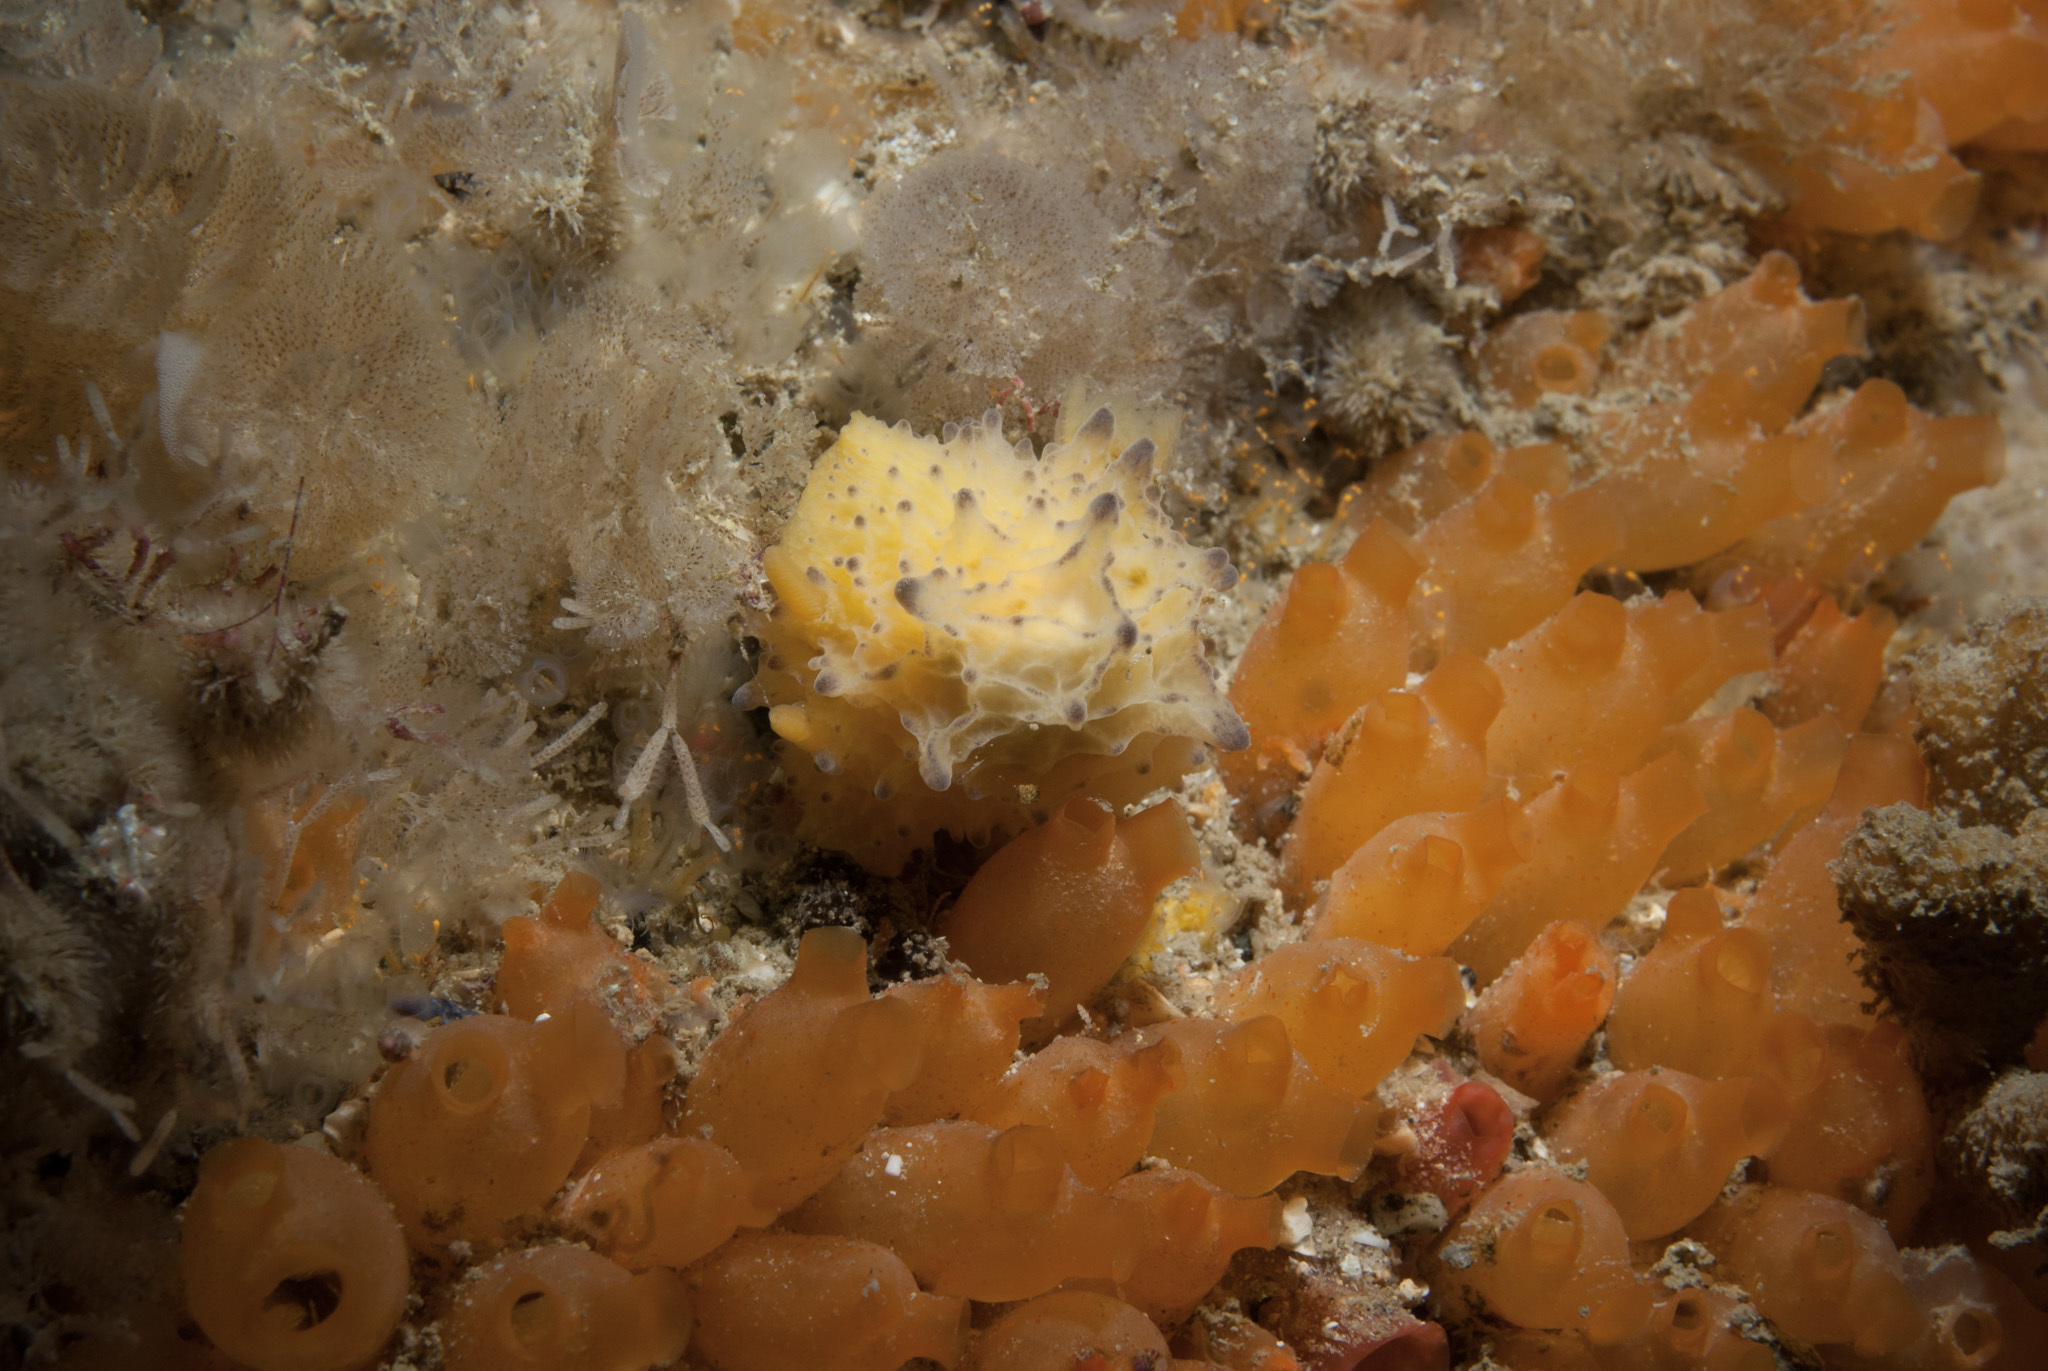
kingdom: Animalia
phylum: Mollusca
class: Gastropoda
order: Nudibranchia
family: Dorididae
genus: Doris
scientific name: Doris sticta
